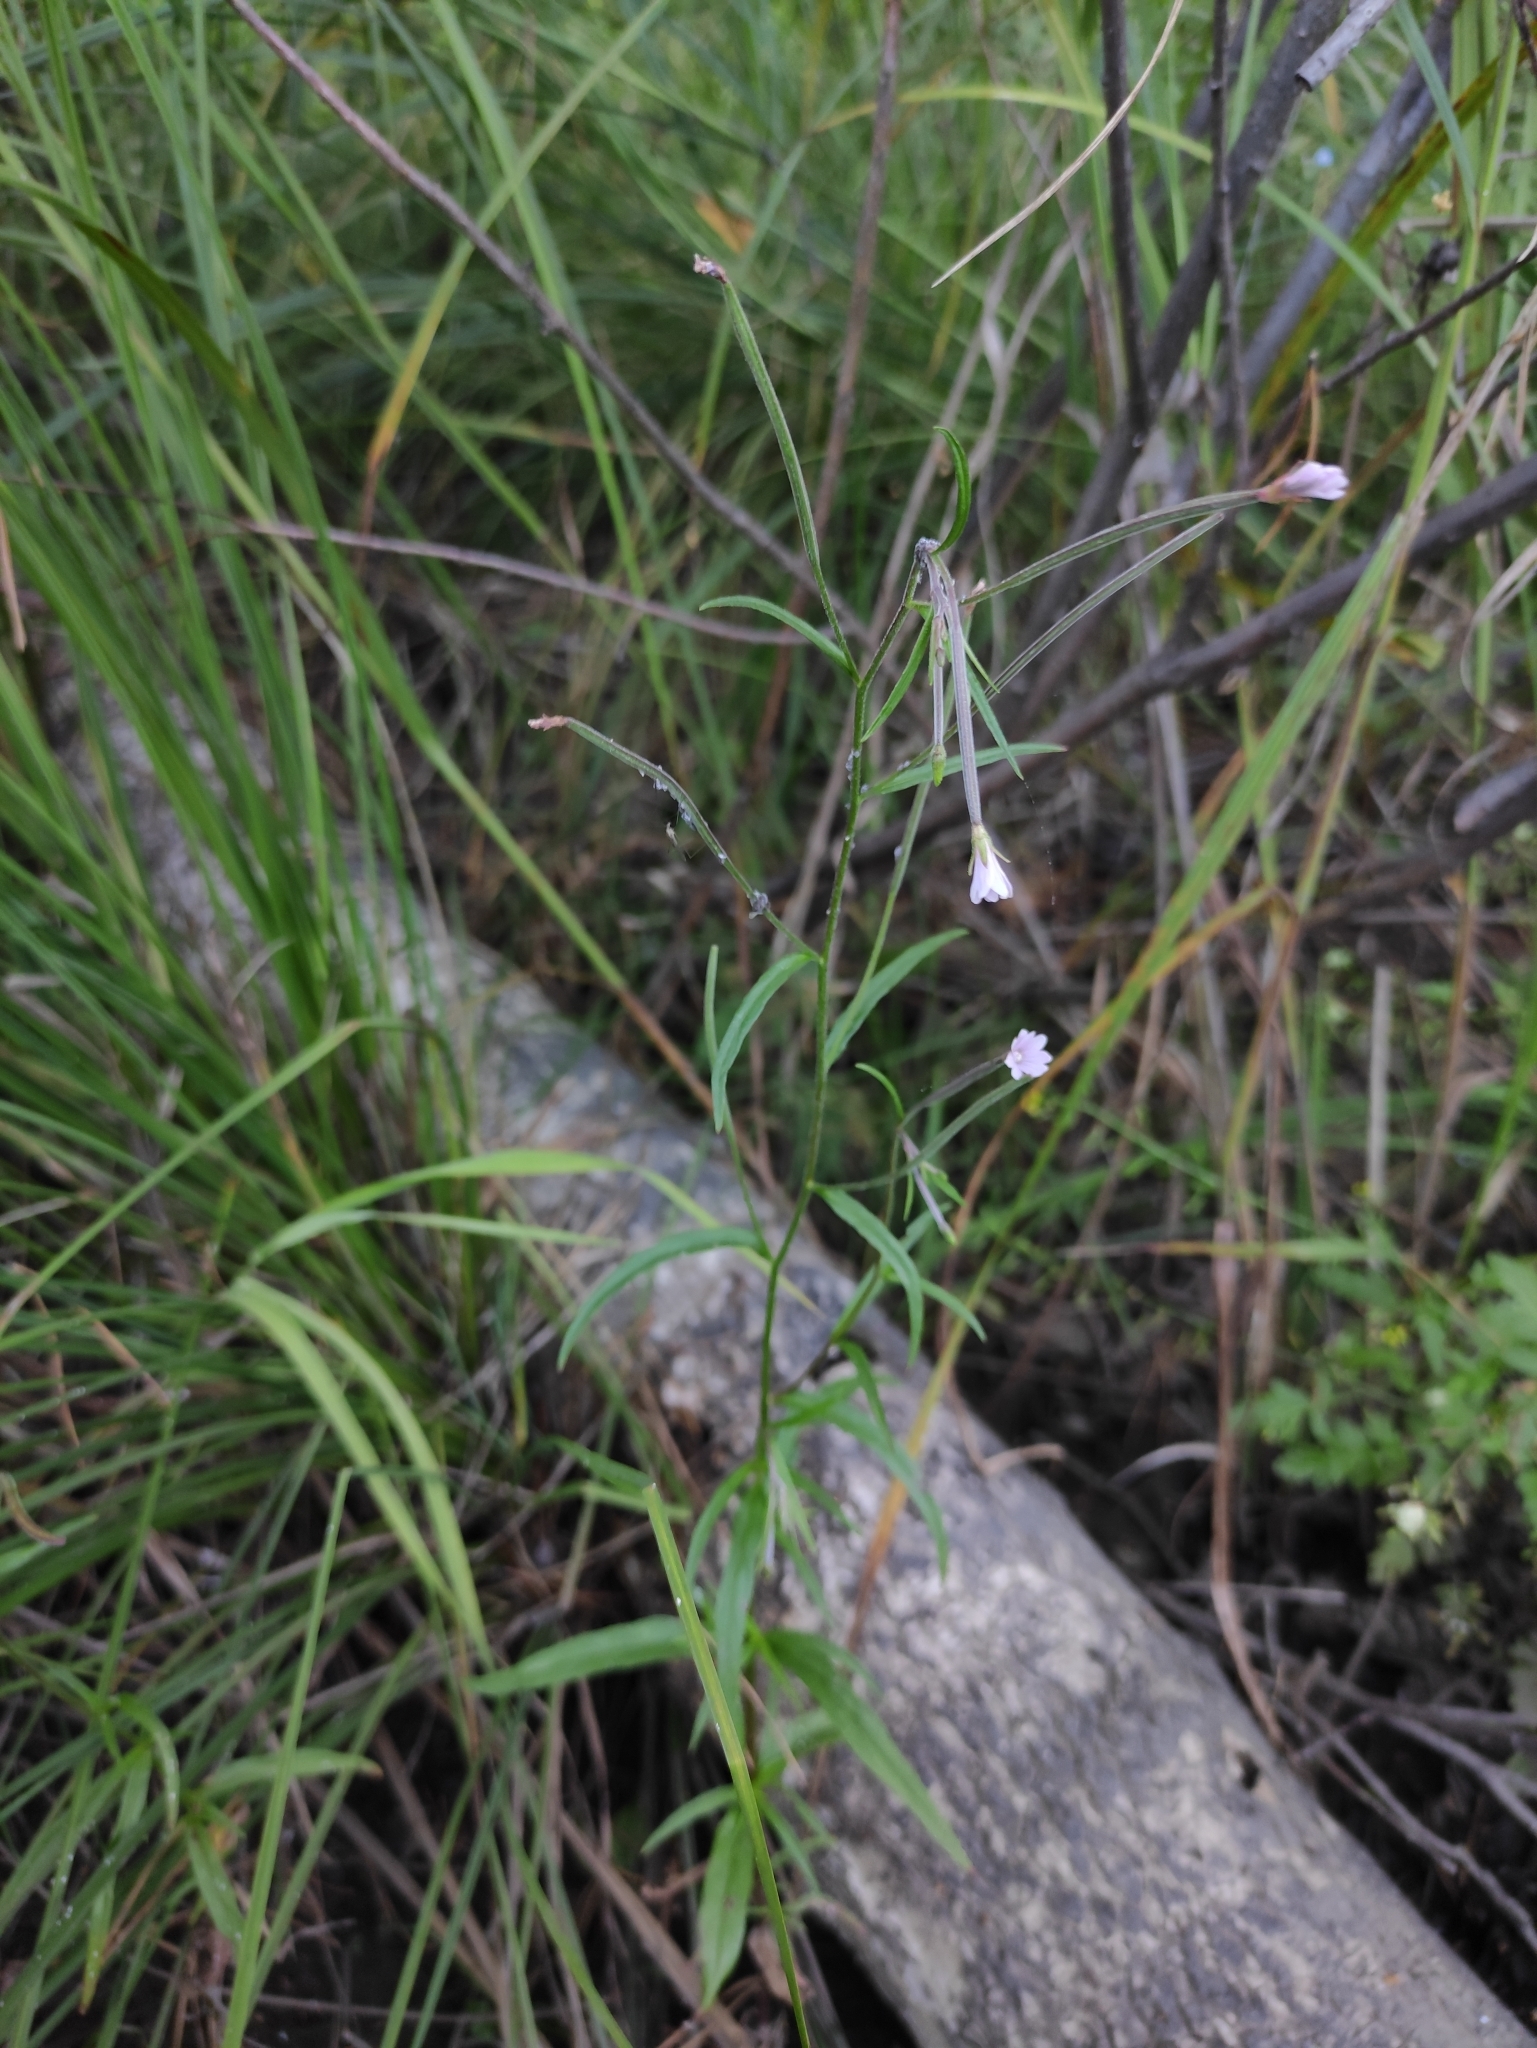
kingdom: Plantae
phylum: Tracheophyta
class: Magnoliopsida
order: Myrtales
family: Onagraceae
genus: Epilobium
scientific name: Epilobium palustre
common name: Marsh willowherb
